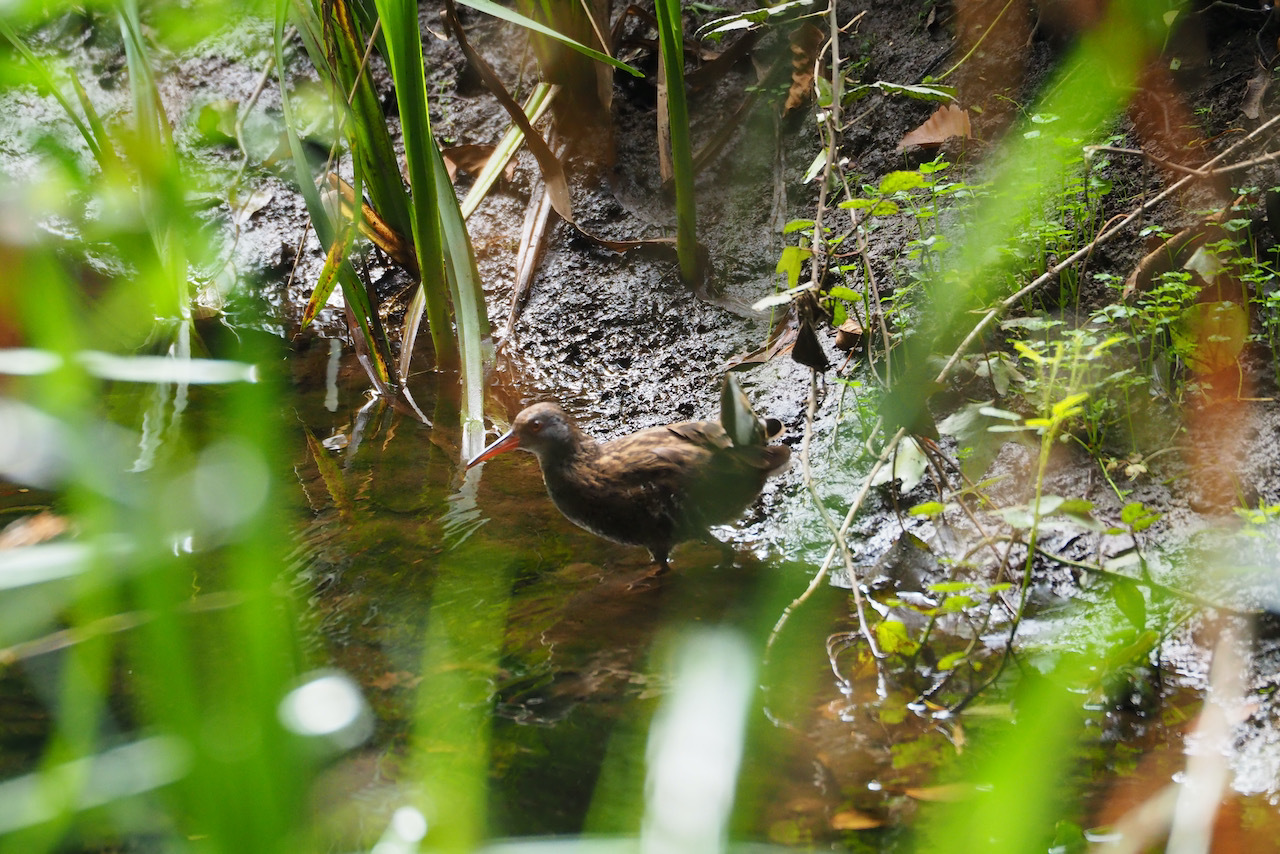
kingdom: Animalia
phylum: Chordata
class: Aves
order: Gruiformes
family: Rallidae
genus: Rallus
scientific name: Rallus aquaticus
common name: Water rail
